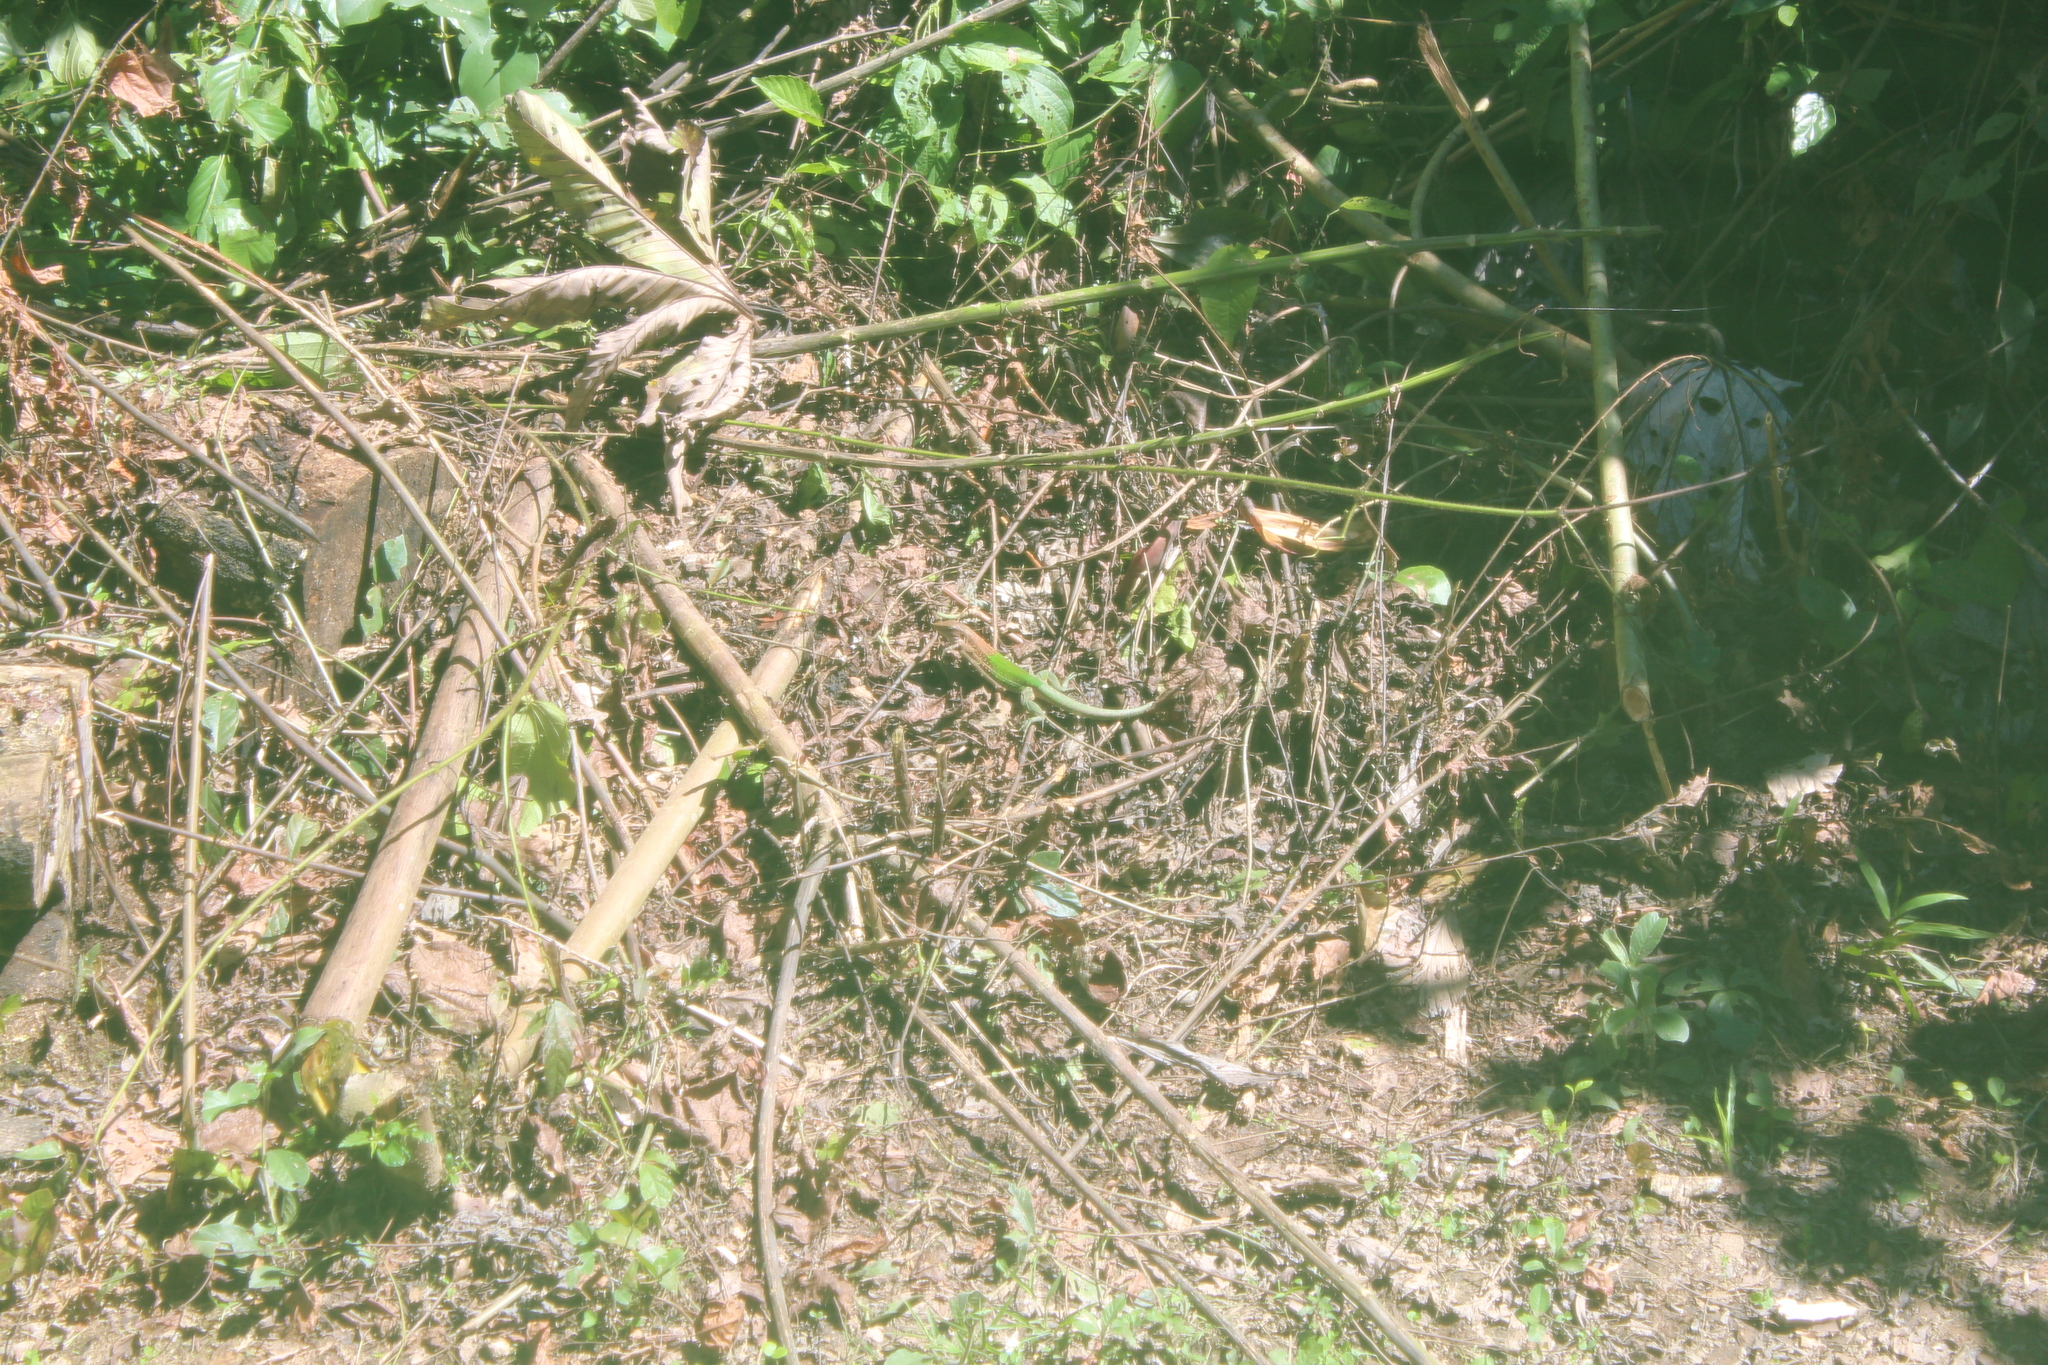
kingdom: Animalia
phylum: Chordata
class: Squamata
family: Teiidae
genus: Ameiva
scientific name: Ameiva ameiva
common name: Giant ameiva
